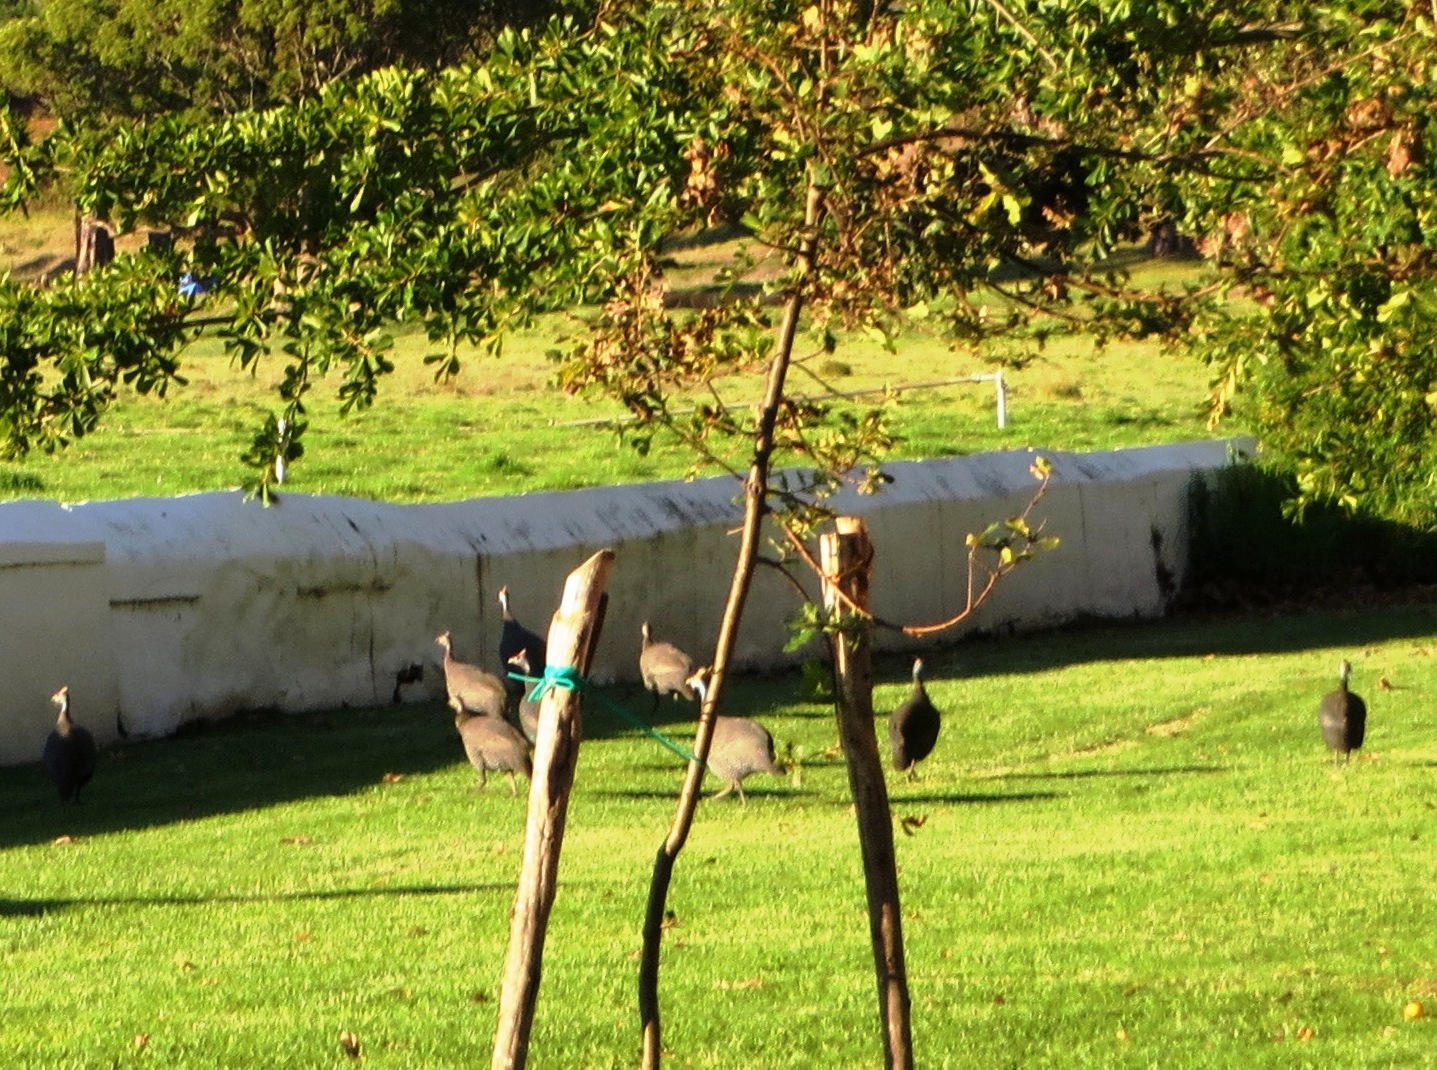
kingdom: Animalia
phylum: Chordata
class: Aves
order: Galliformes
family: Numididae
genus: Numida
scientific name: Numida meleagris
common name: Helmeted guineafowl
